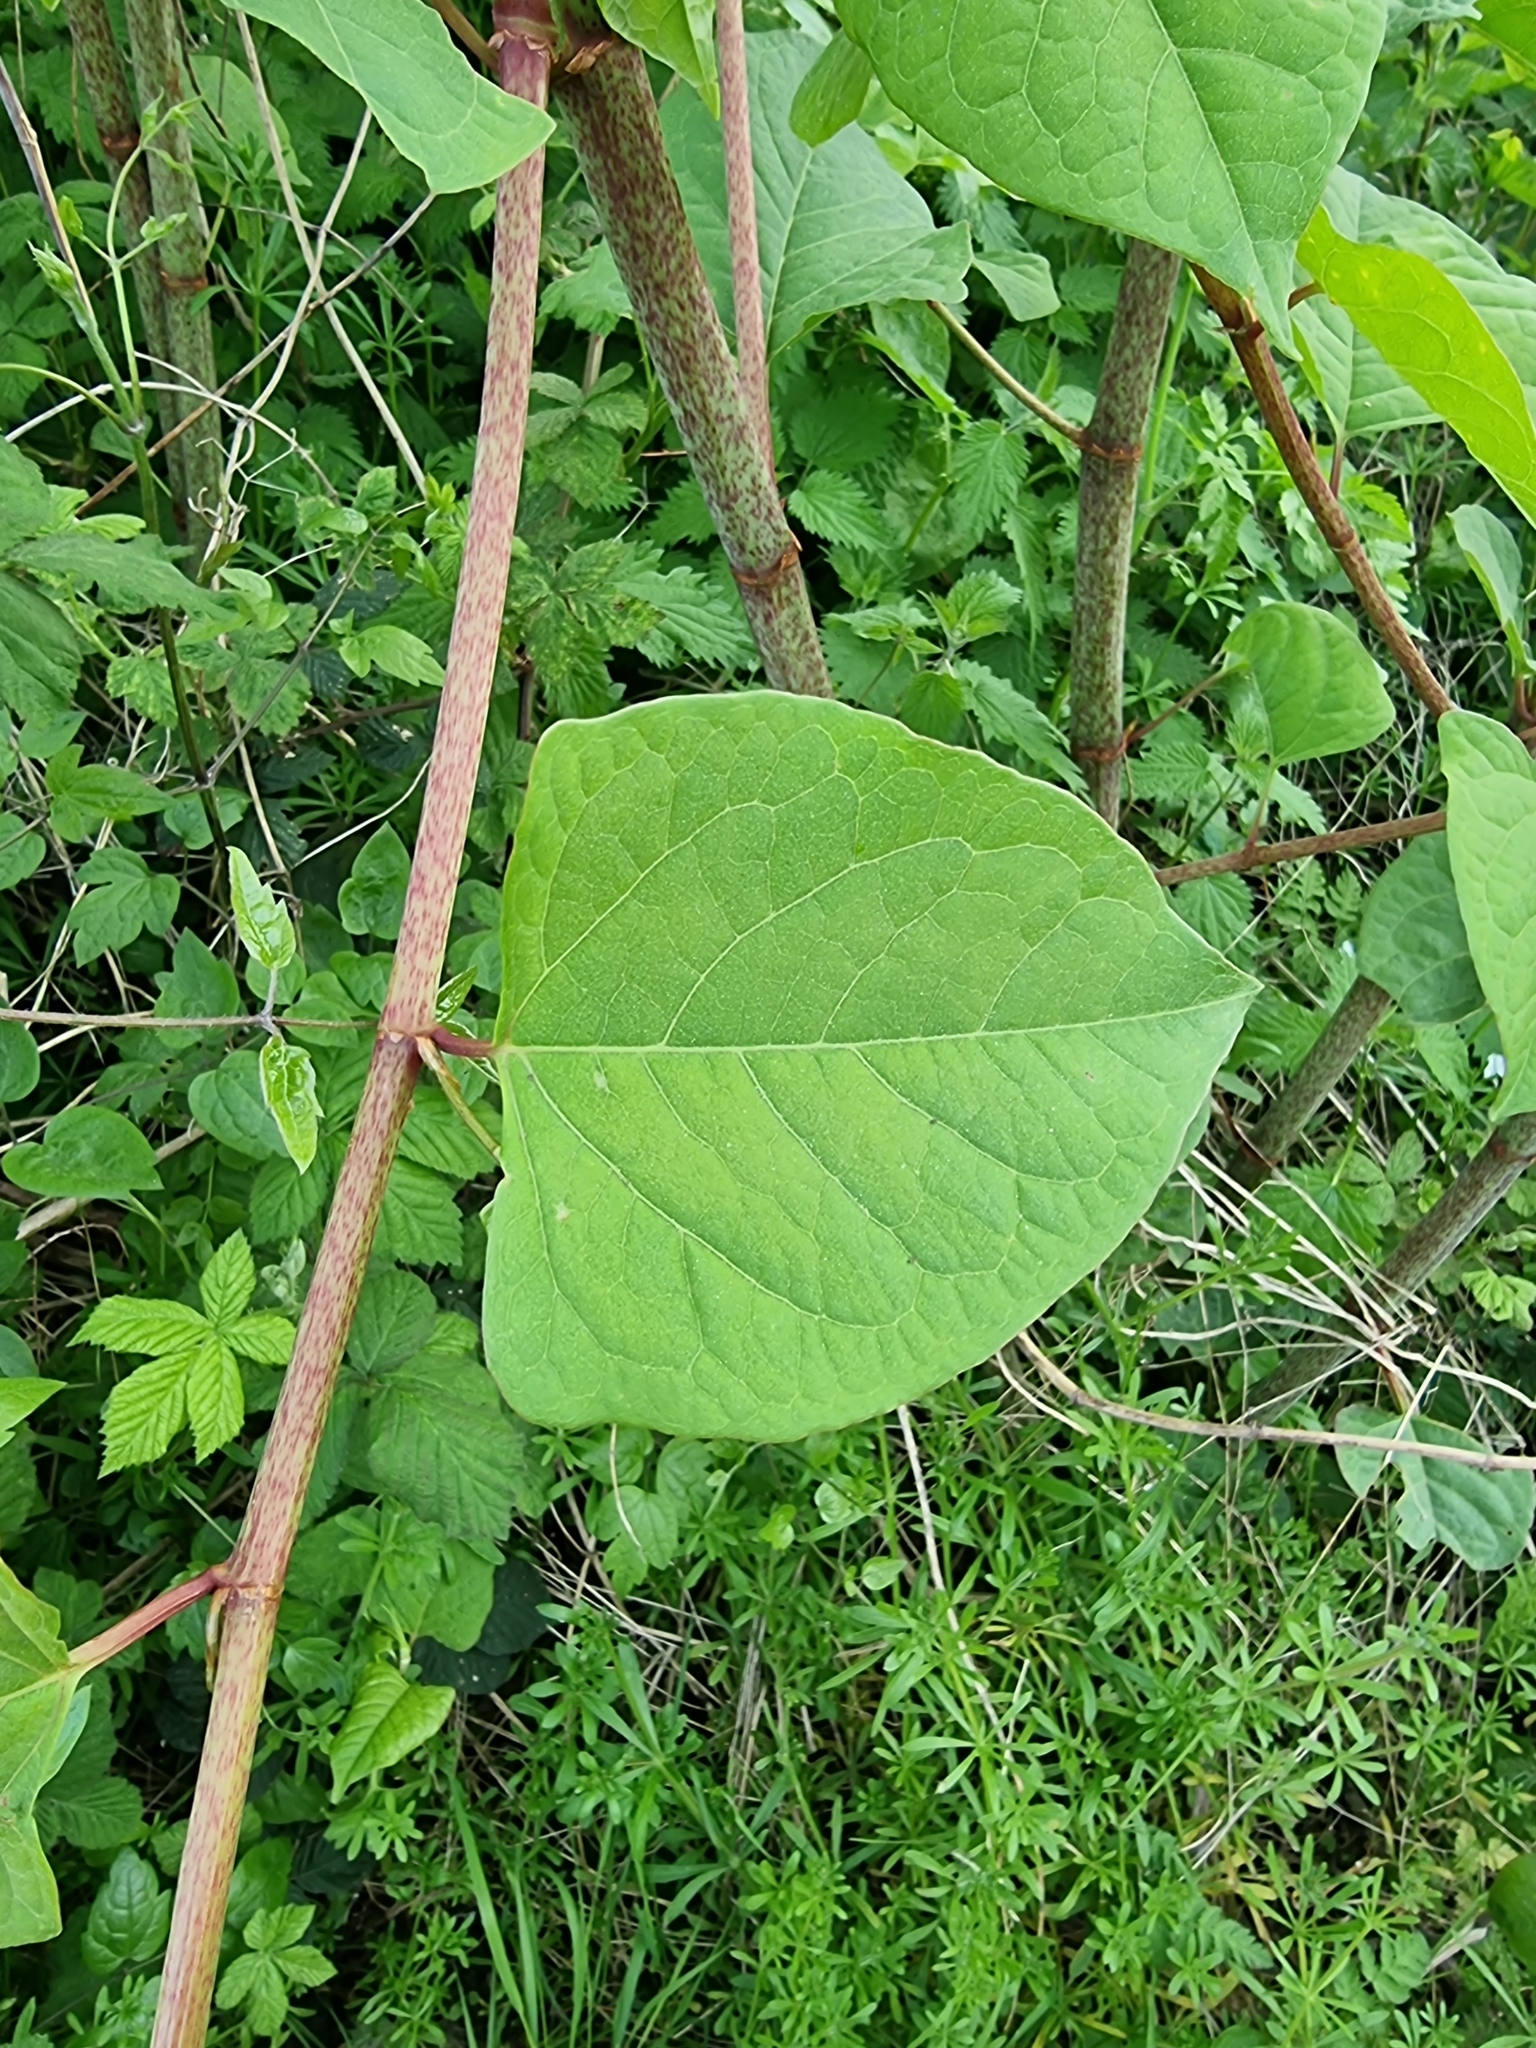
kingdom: Plantae
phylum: Tracheophyta
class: Magnoliopsida
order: Caryophyllales
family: Polygonaceae
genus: Reynoutria
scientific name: Reynoutria japonica
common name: Japanese knotweed
